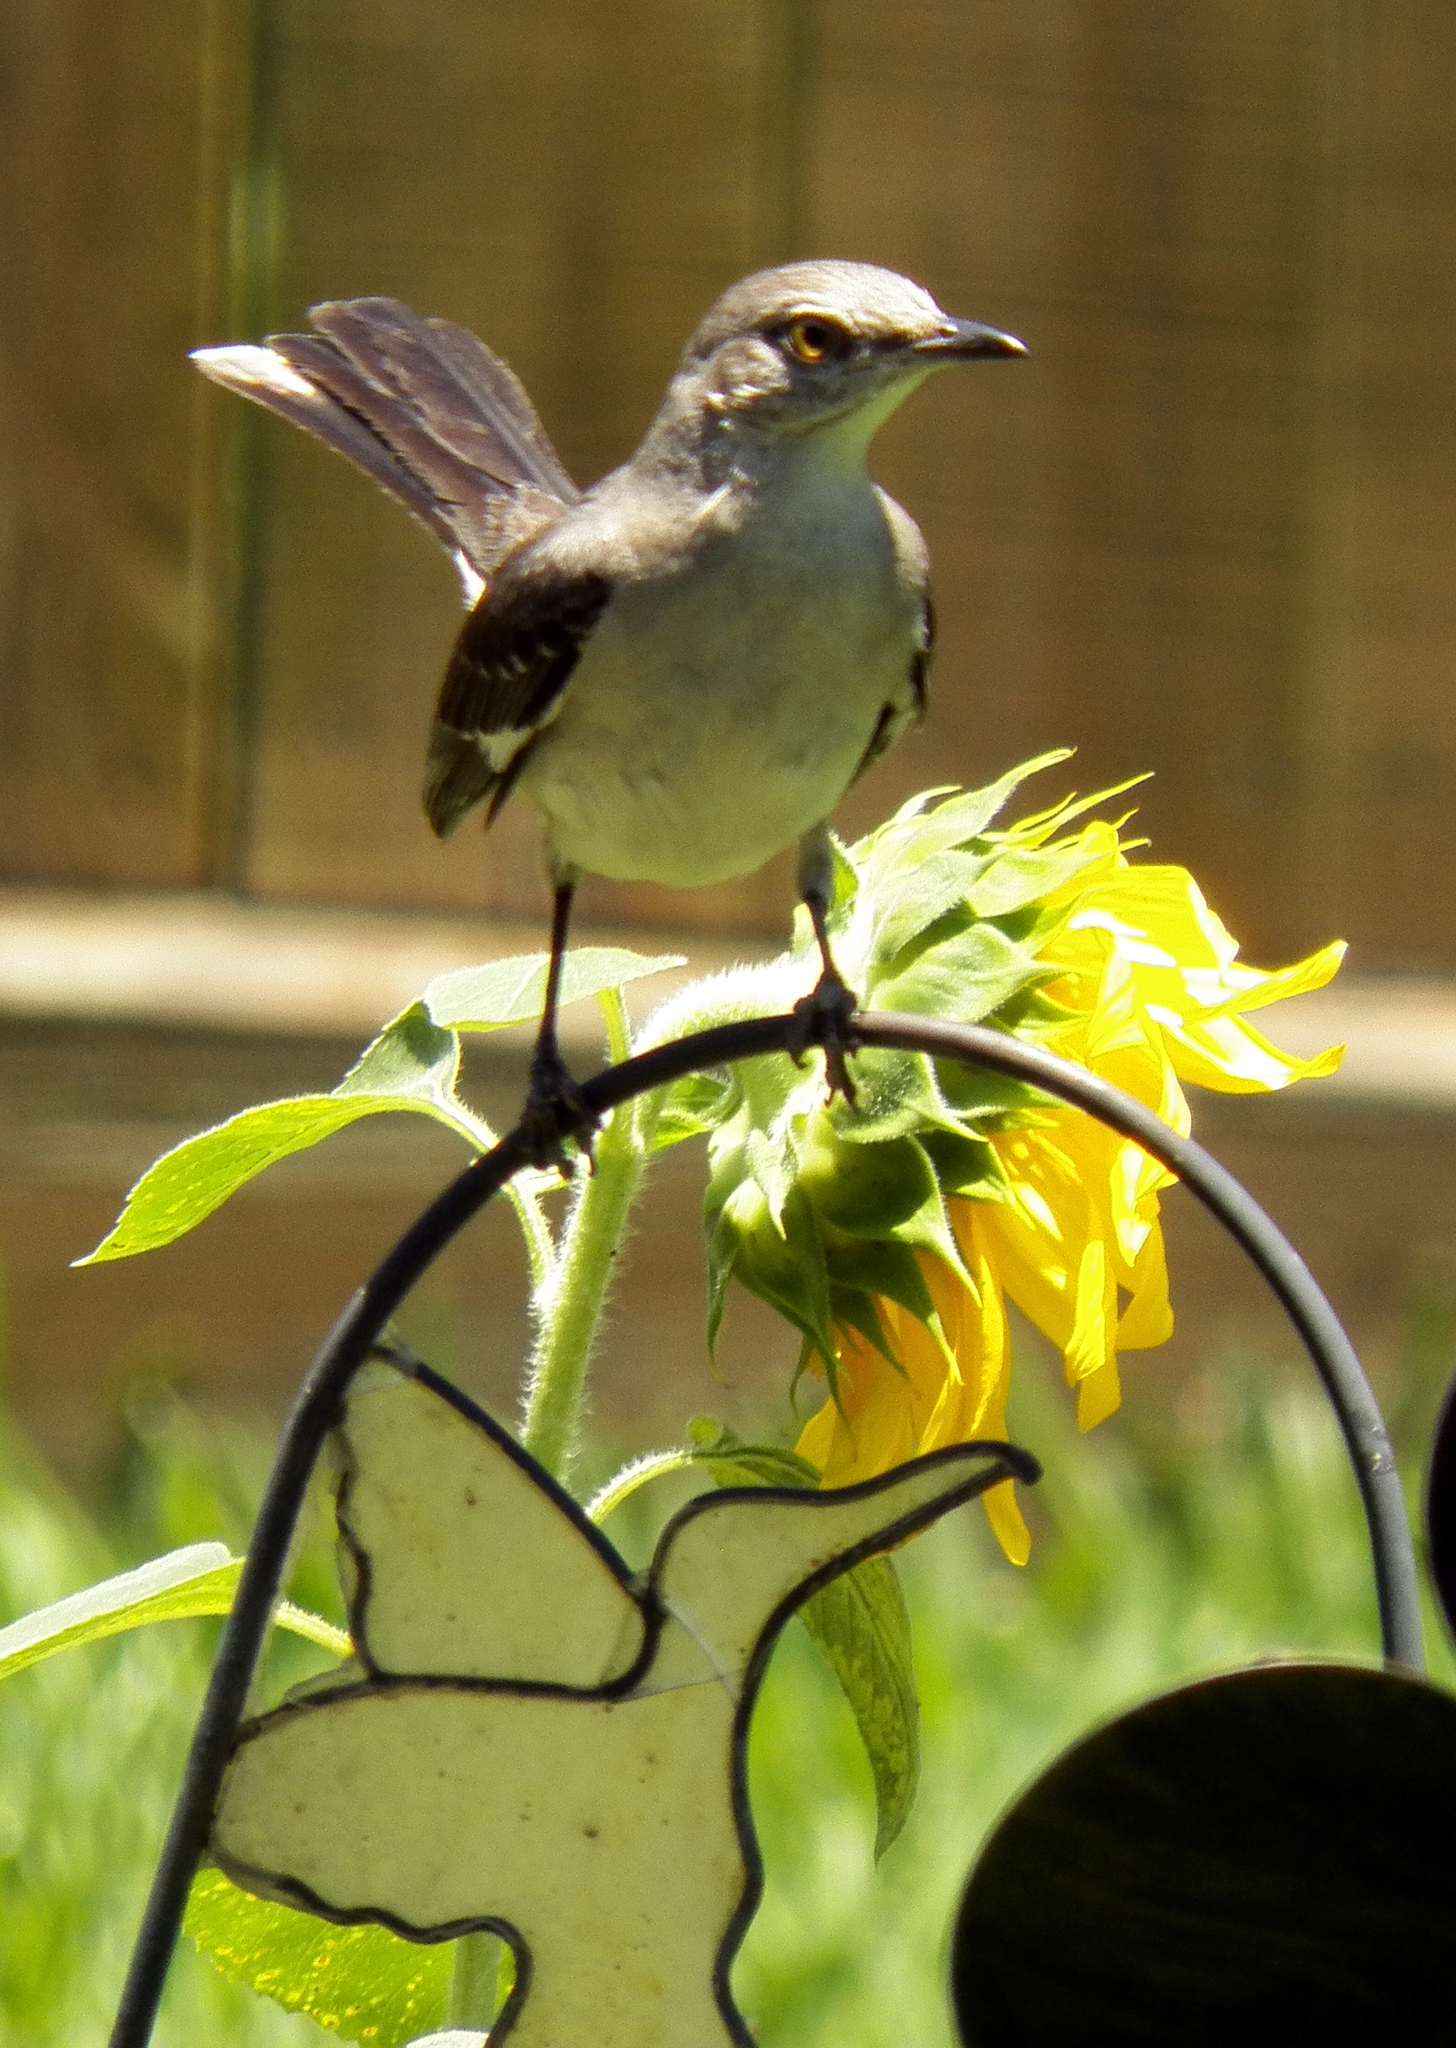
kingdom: Animalia
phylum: Chordata
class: Aves
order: Passeriformes
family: Mimidae
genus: Mimus
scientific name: Mimus polyglottos
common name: Northern mockingbird
